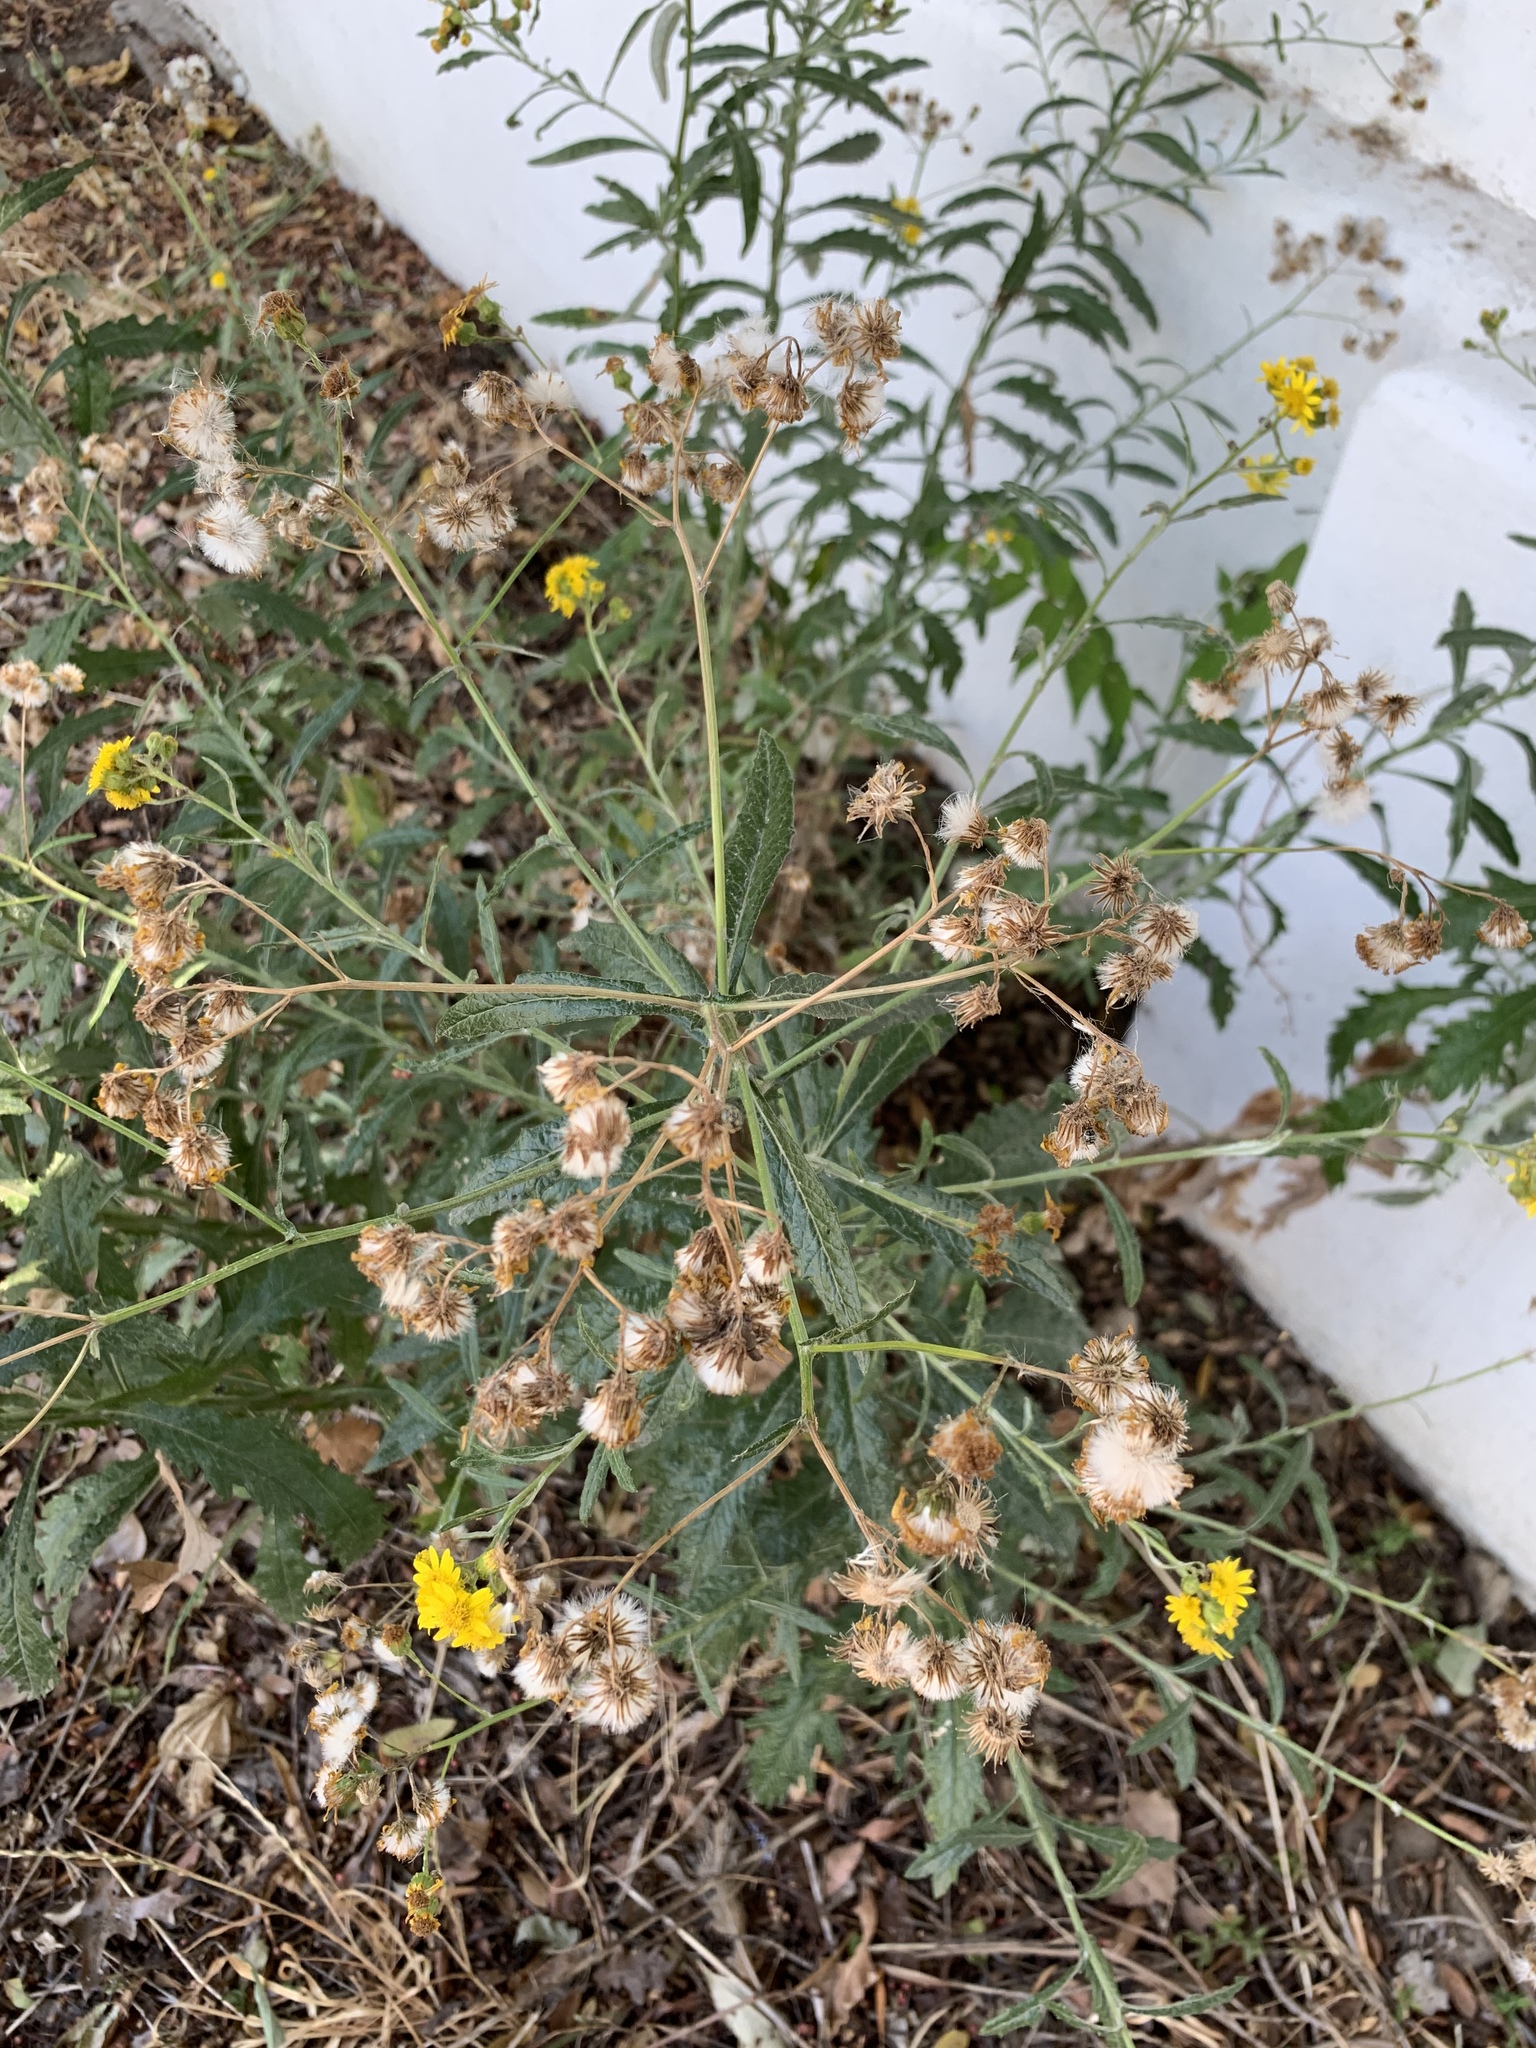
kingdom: Plantae
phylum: Tracheophyta
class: Magnoliopsida
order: Asterales
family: Asteraceae
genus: Senecio
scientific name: Senecio pterophorus
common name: Shoddy ragwort
